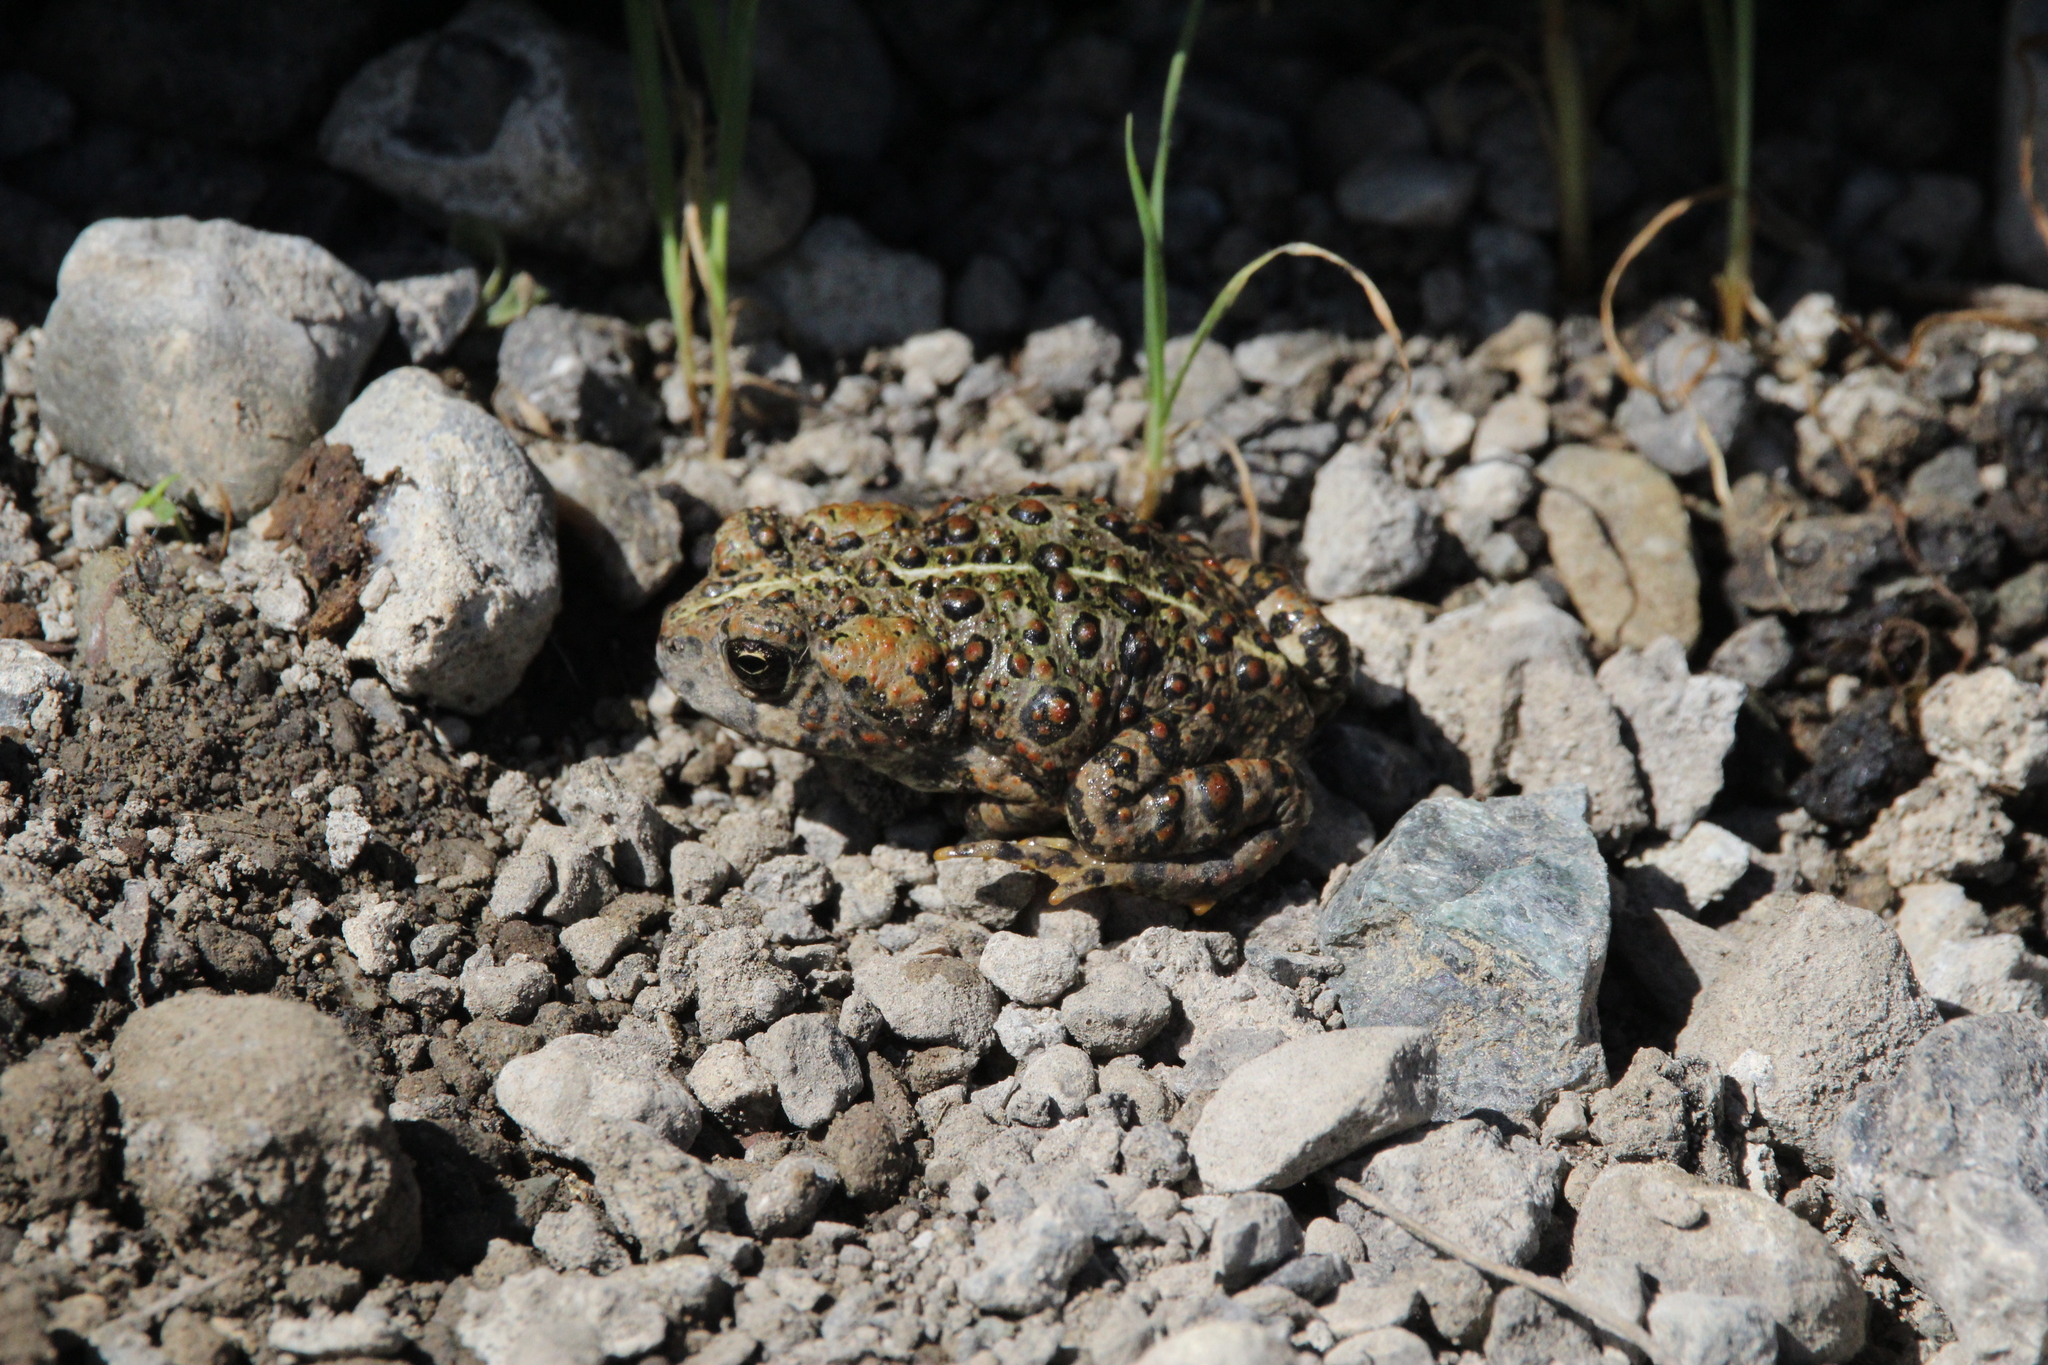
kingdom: Animalia
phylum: Chordata
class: Amphibia
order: Anura
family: Bufonidae
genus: Anaxyrus
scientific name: Anaxyrus boreas
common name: Western toad
